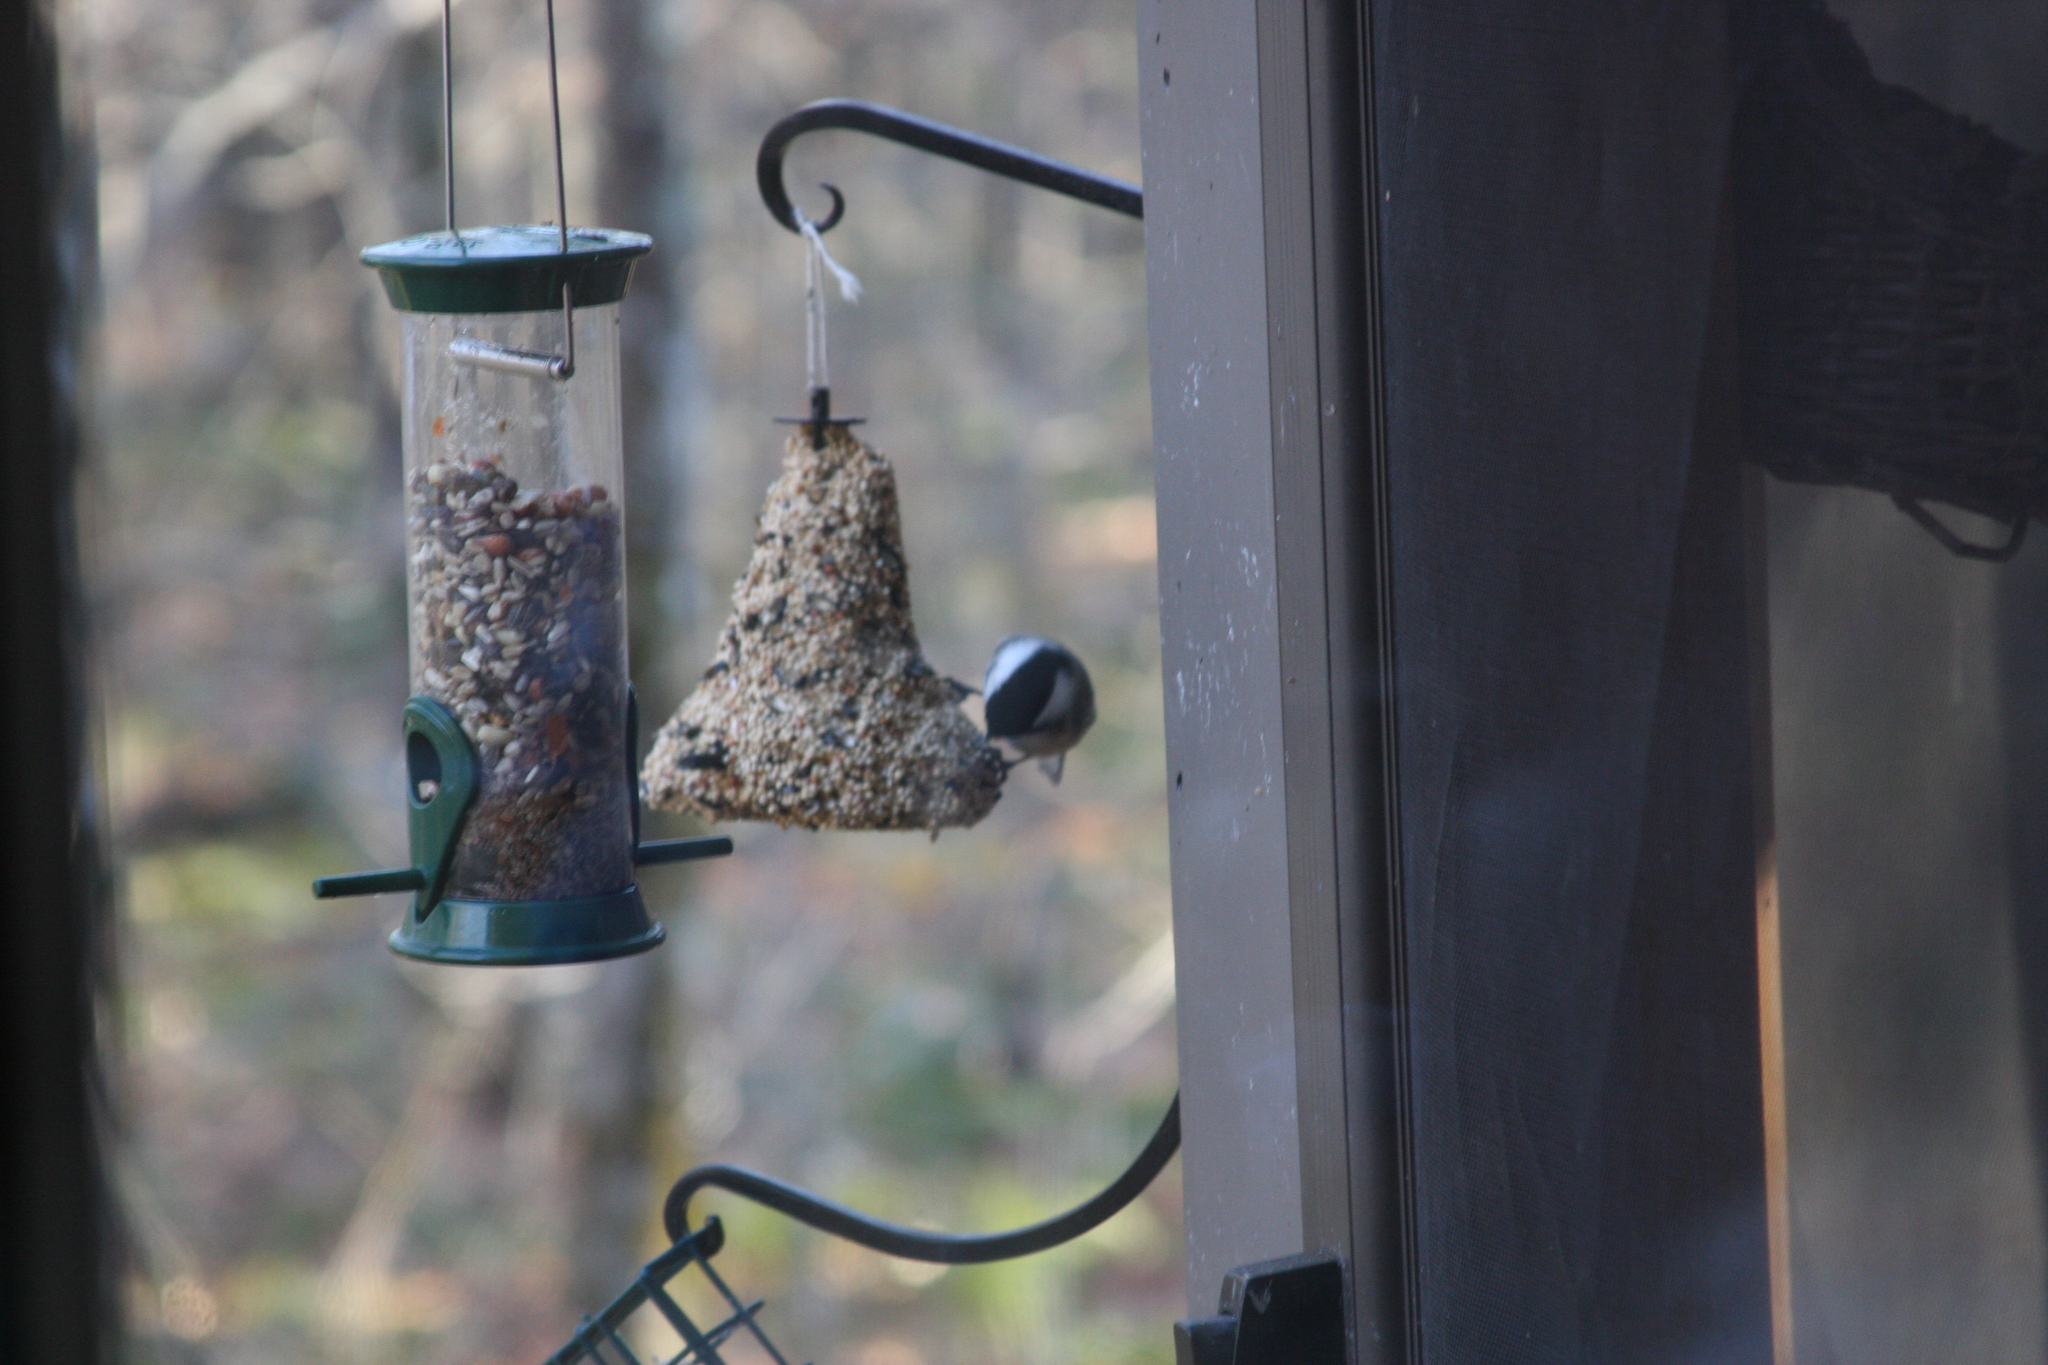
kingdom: Animalia
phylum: Chordata
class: Aves
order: Passeriformes
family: Paridae
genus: Poecile
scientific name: Poecile atricapillus
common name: Black-capped chickadee
